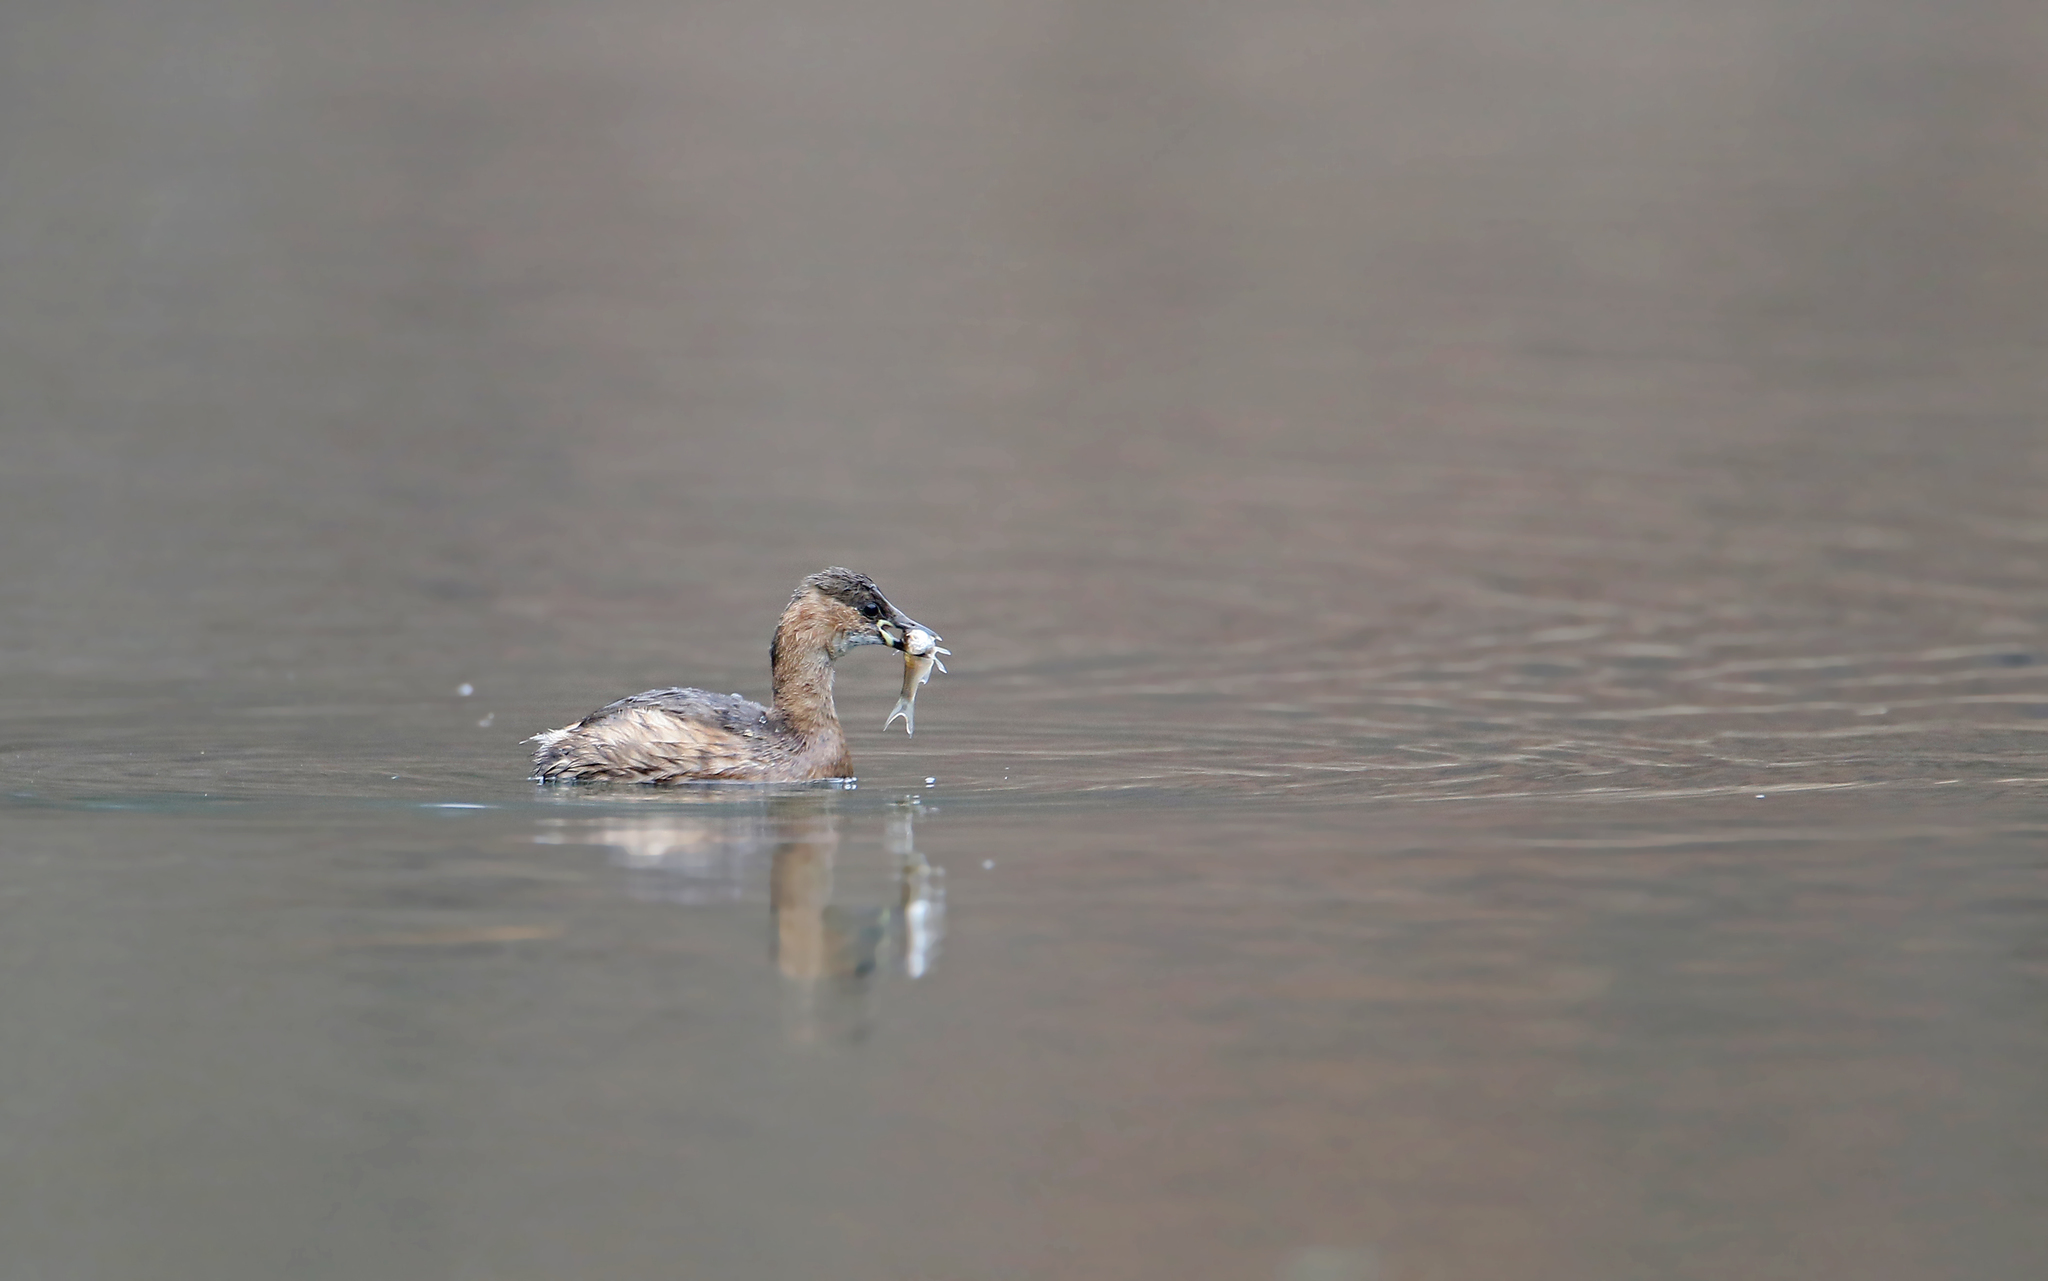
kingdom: Animalia
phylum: Chordata
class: Aves
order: Podicipediformes
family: Podicipedidae
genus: Tachybaptus
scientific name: Tachybaptus ruficollis
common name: Little grebe
